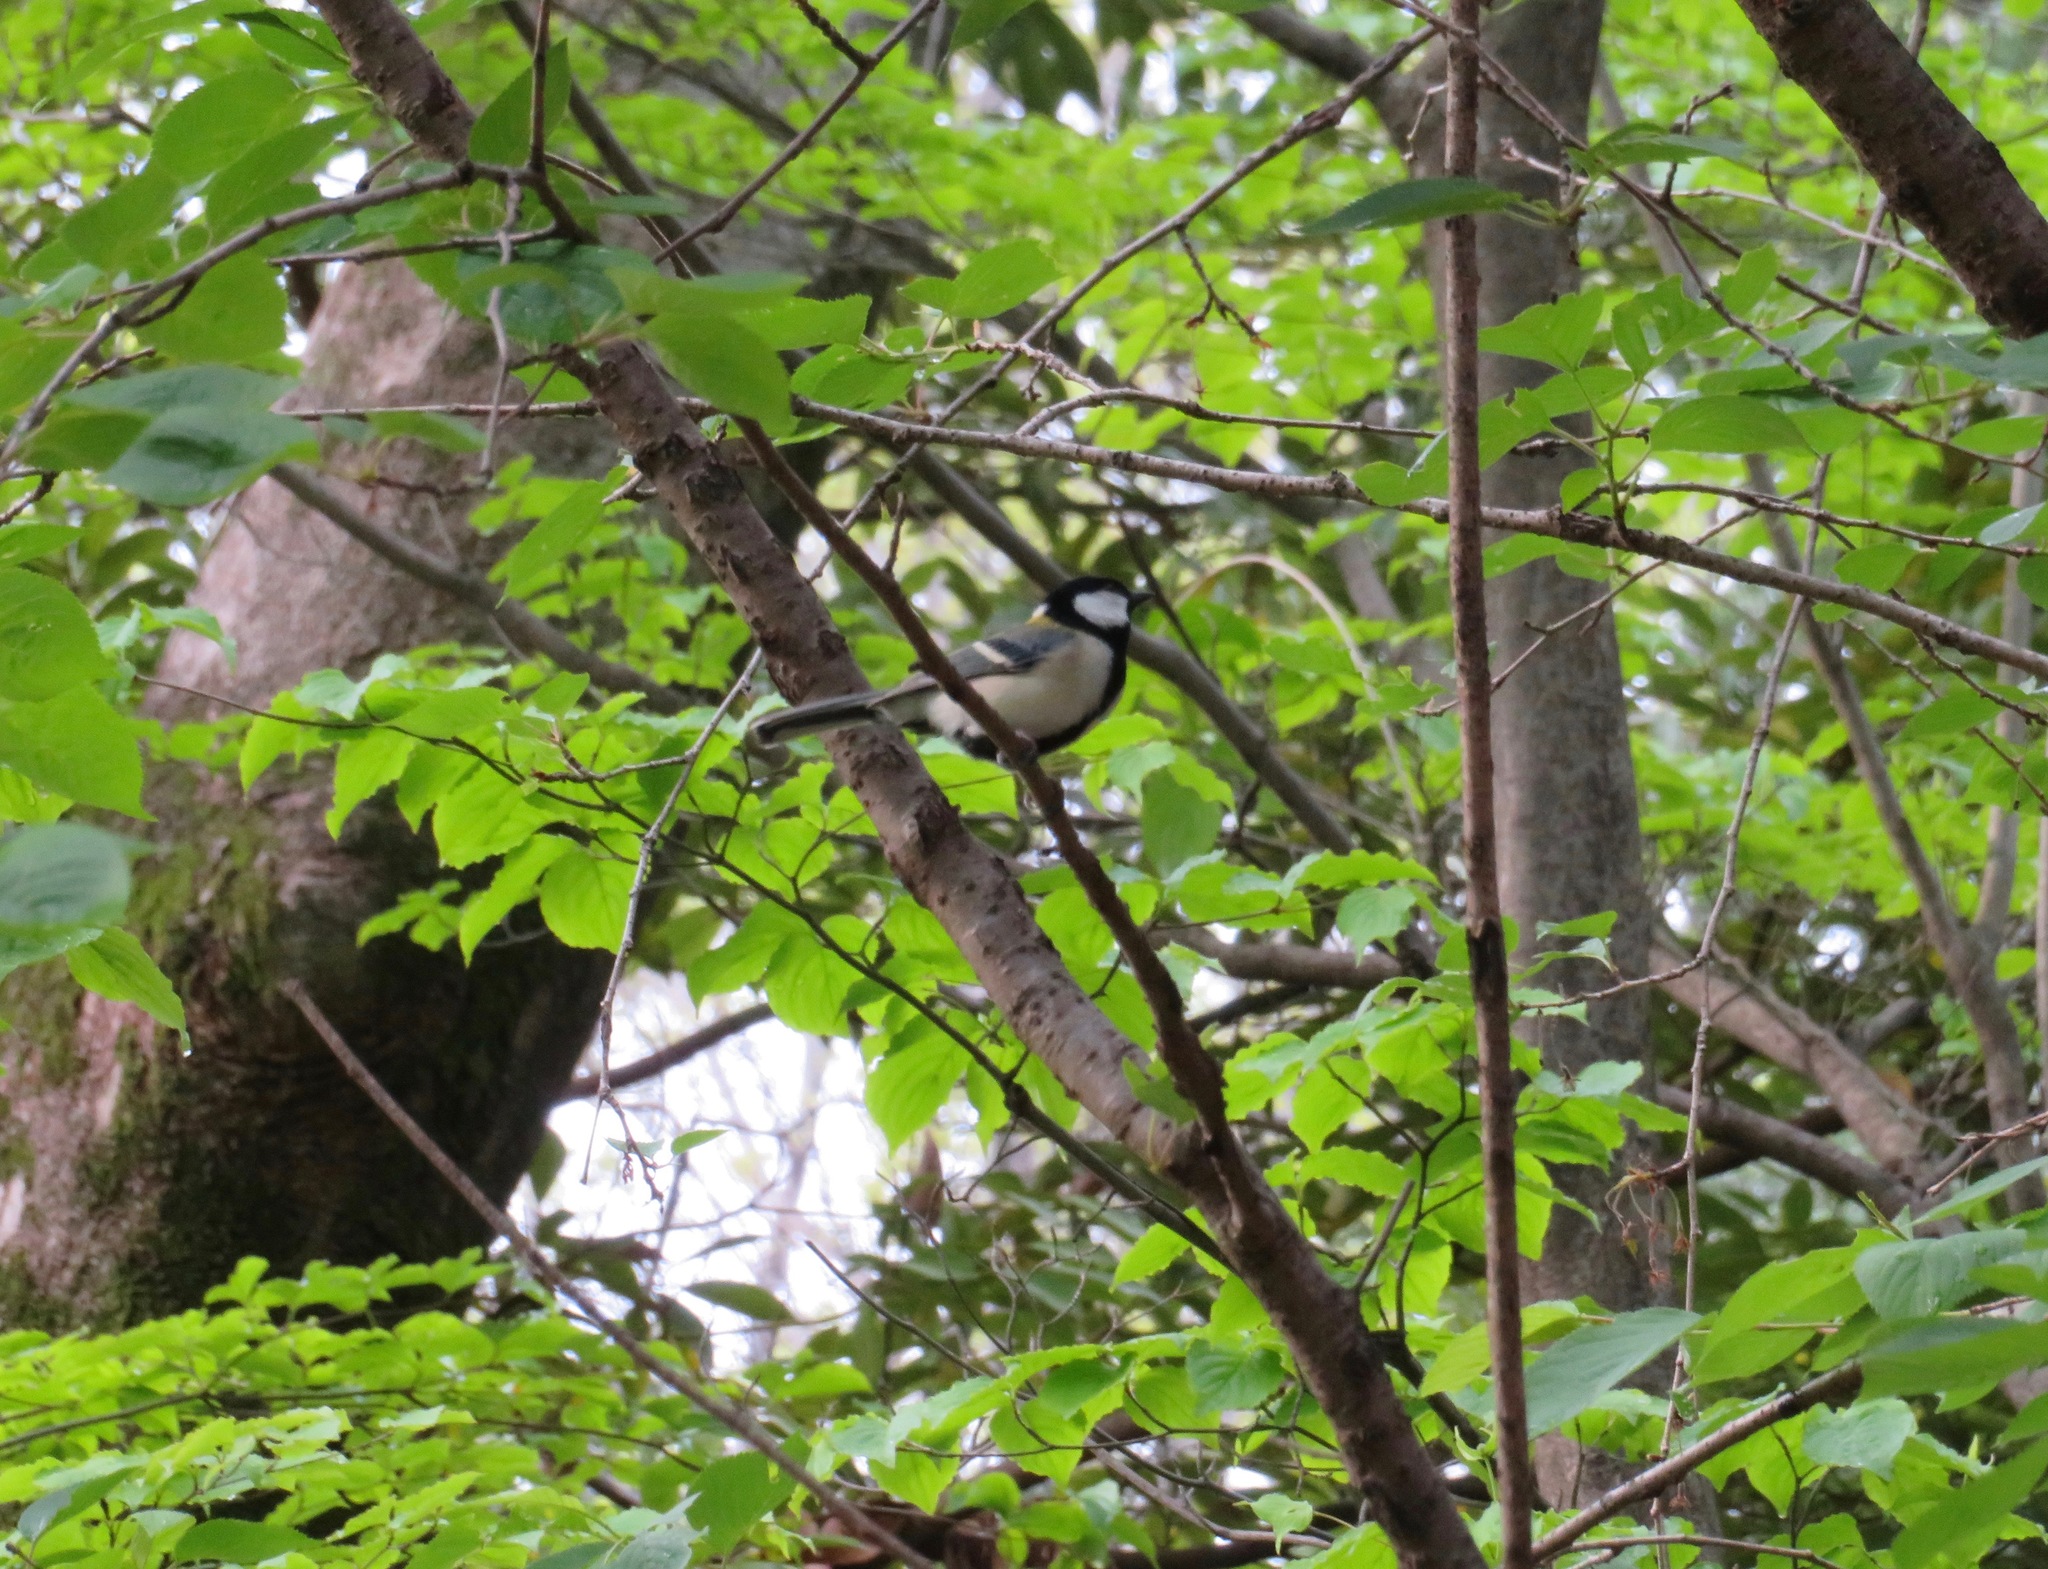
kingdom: Animalia
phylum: Chordata
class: Aves
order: Passeriformes
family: Paridae
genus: Parus
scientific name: Parus minor
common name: Japanese tit
